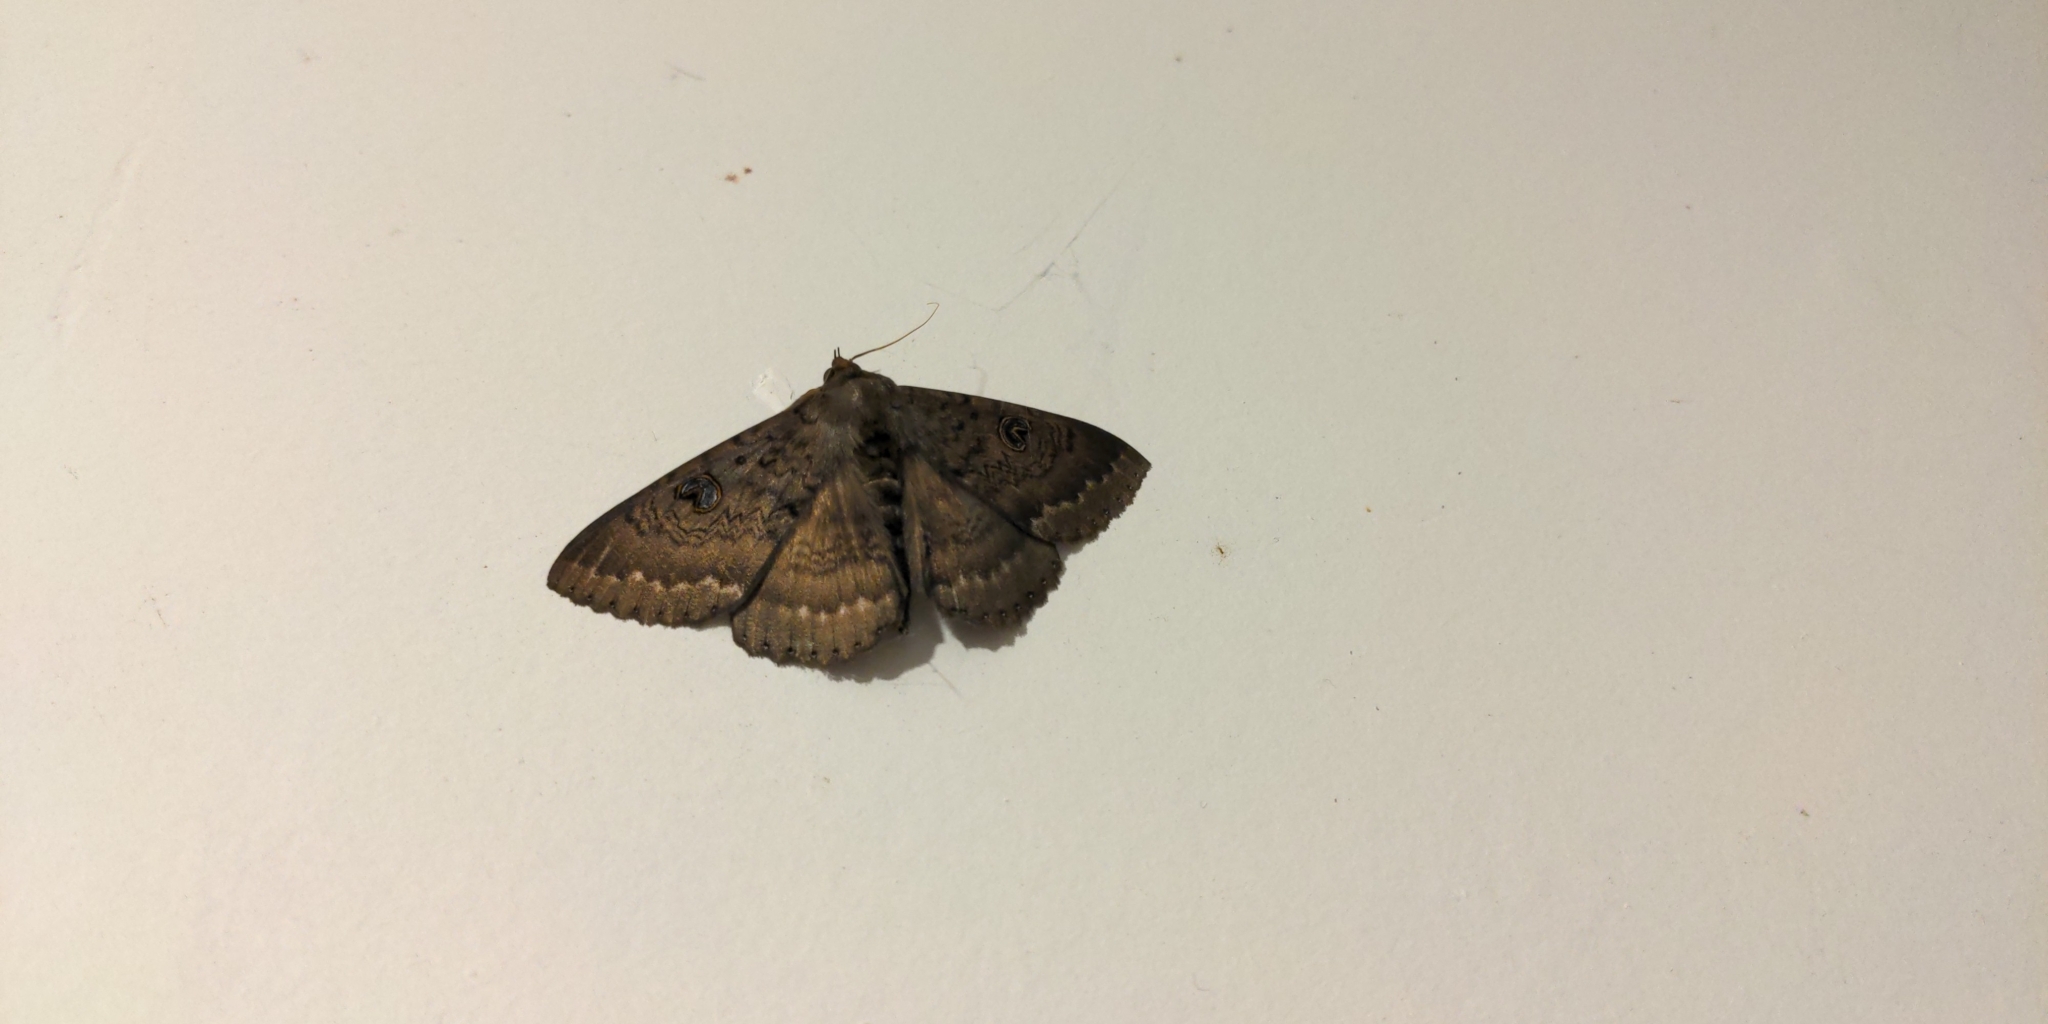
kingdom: Animalia
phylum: Arthropoda
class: Insecta
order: Lepidoptera
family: Erebidae
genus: Dasypodia
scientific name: Dasypodia cymatodes
